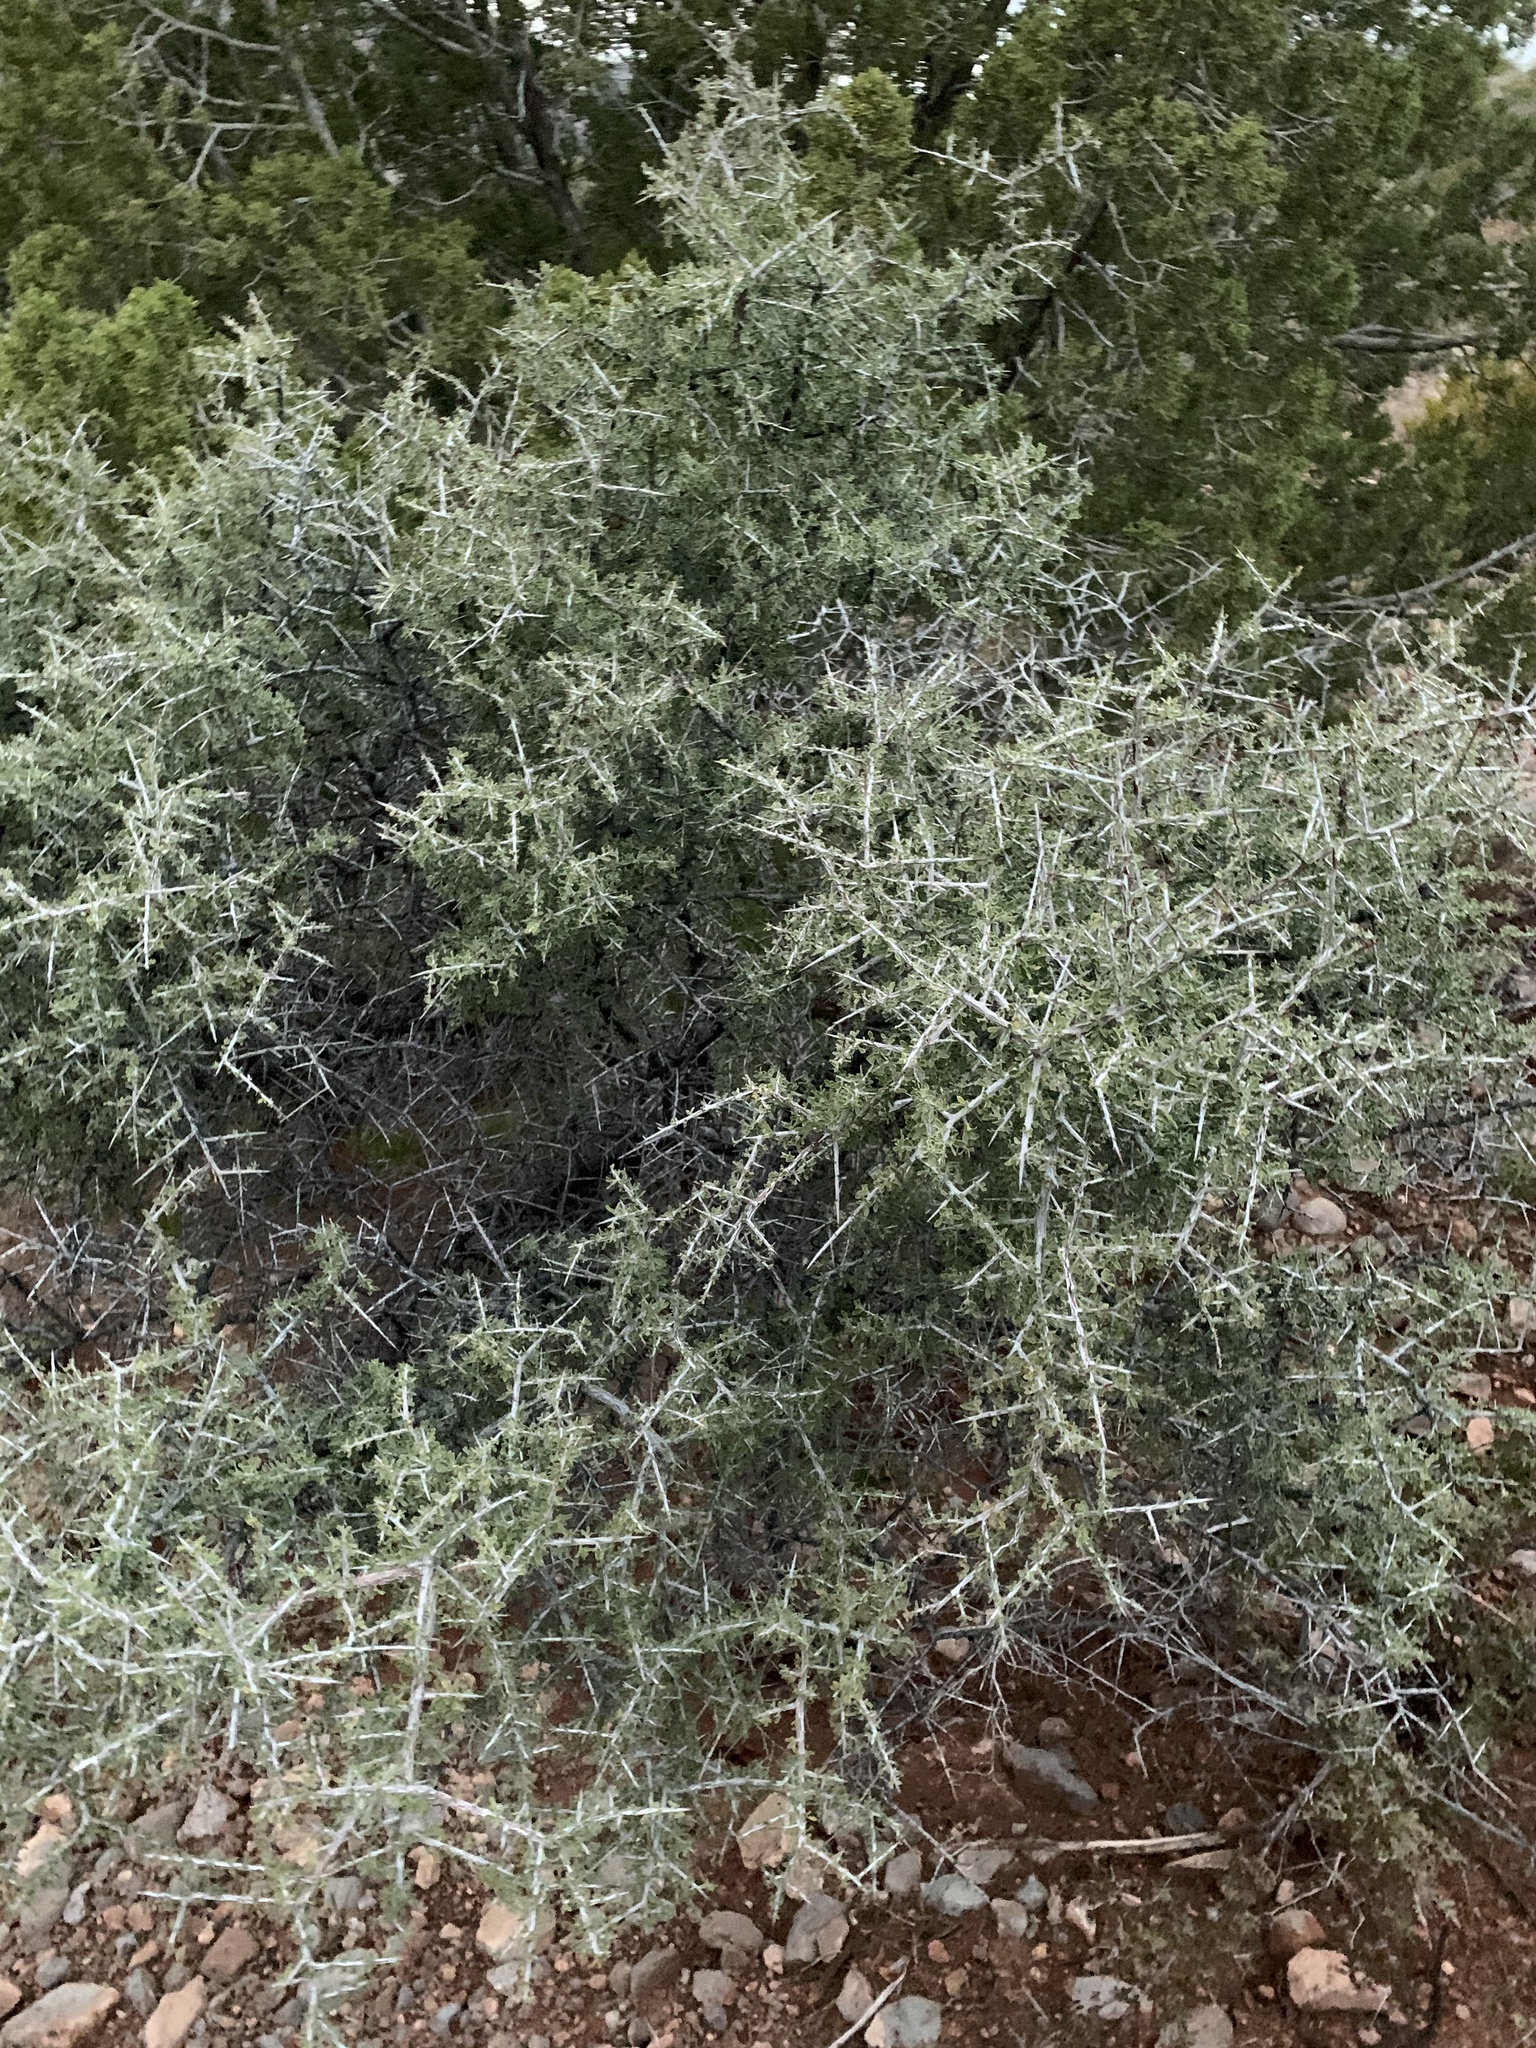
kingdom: Plantae
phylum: Tracheophyta
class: Magnoliopsida
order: Rosales
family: Rhamnaceae
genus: Condalia
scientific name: Condalia warnockii
